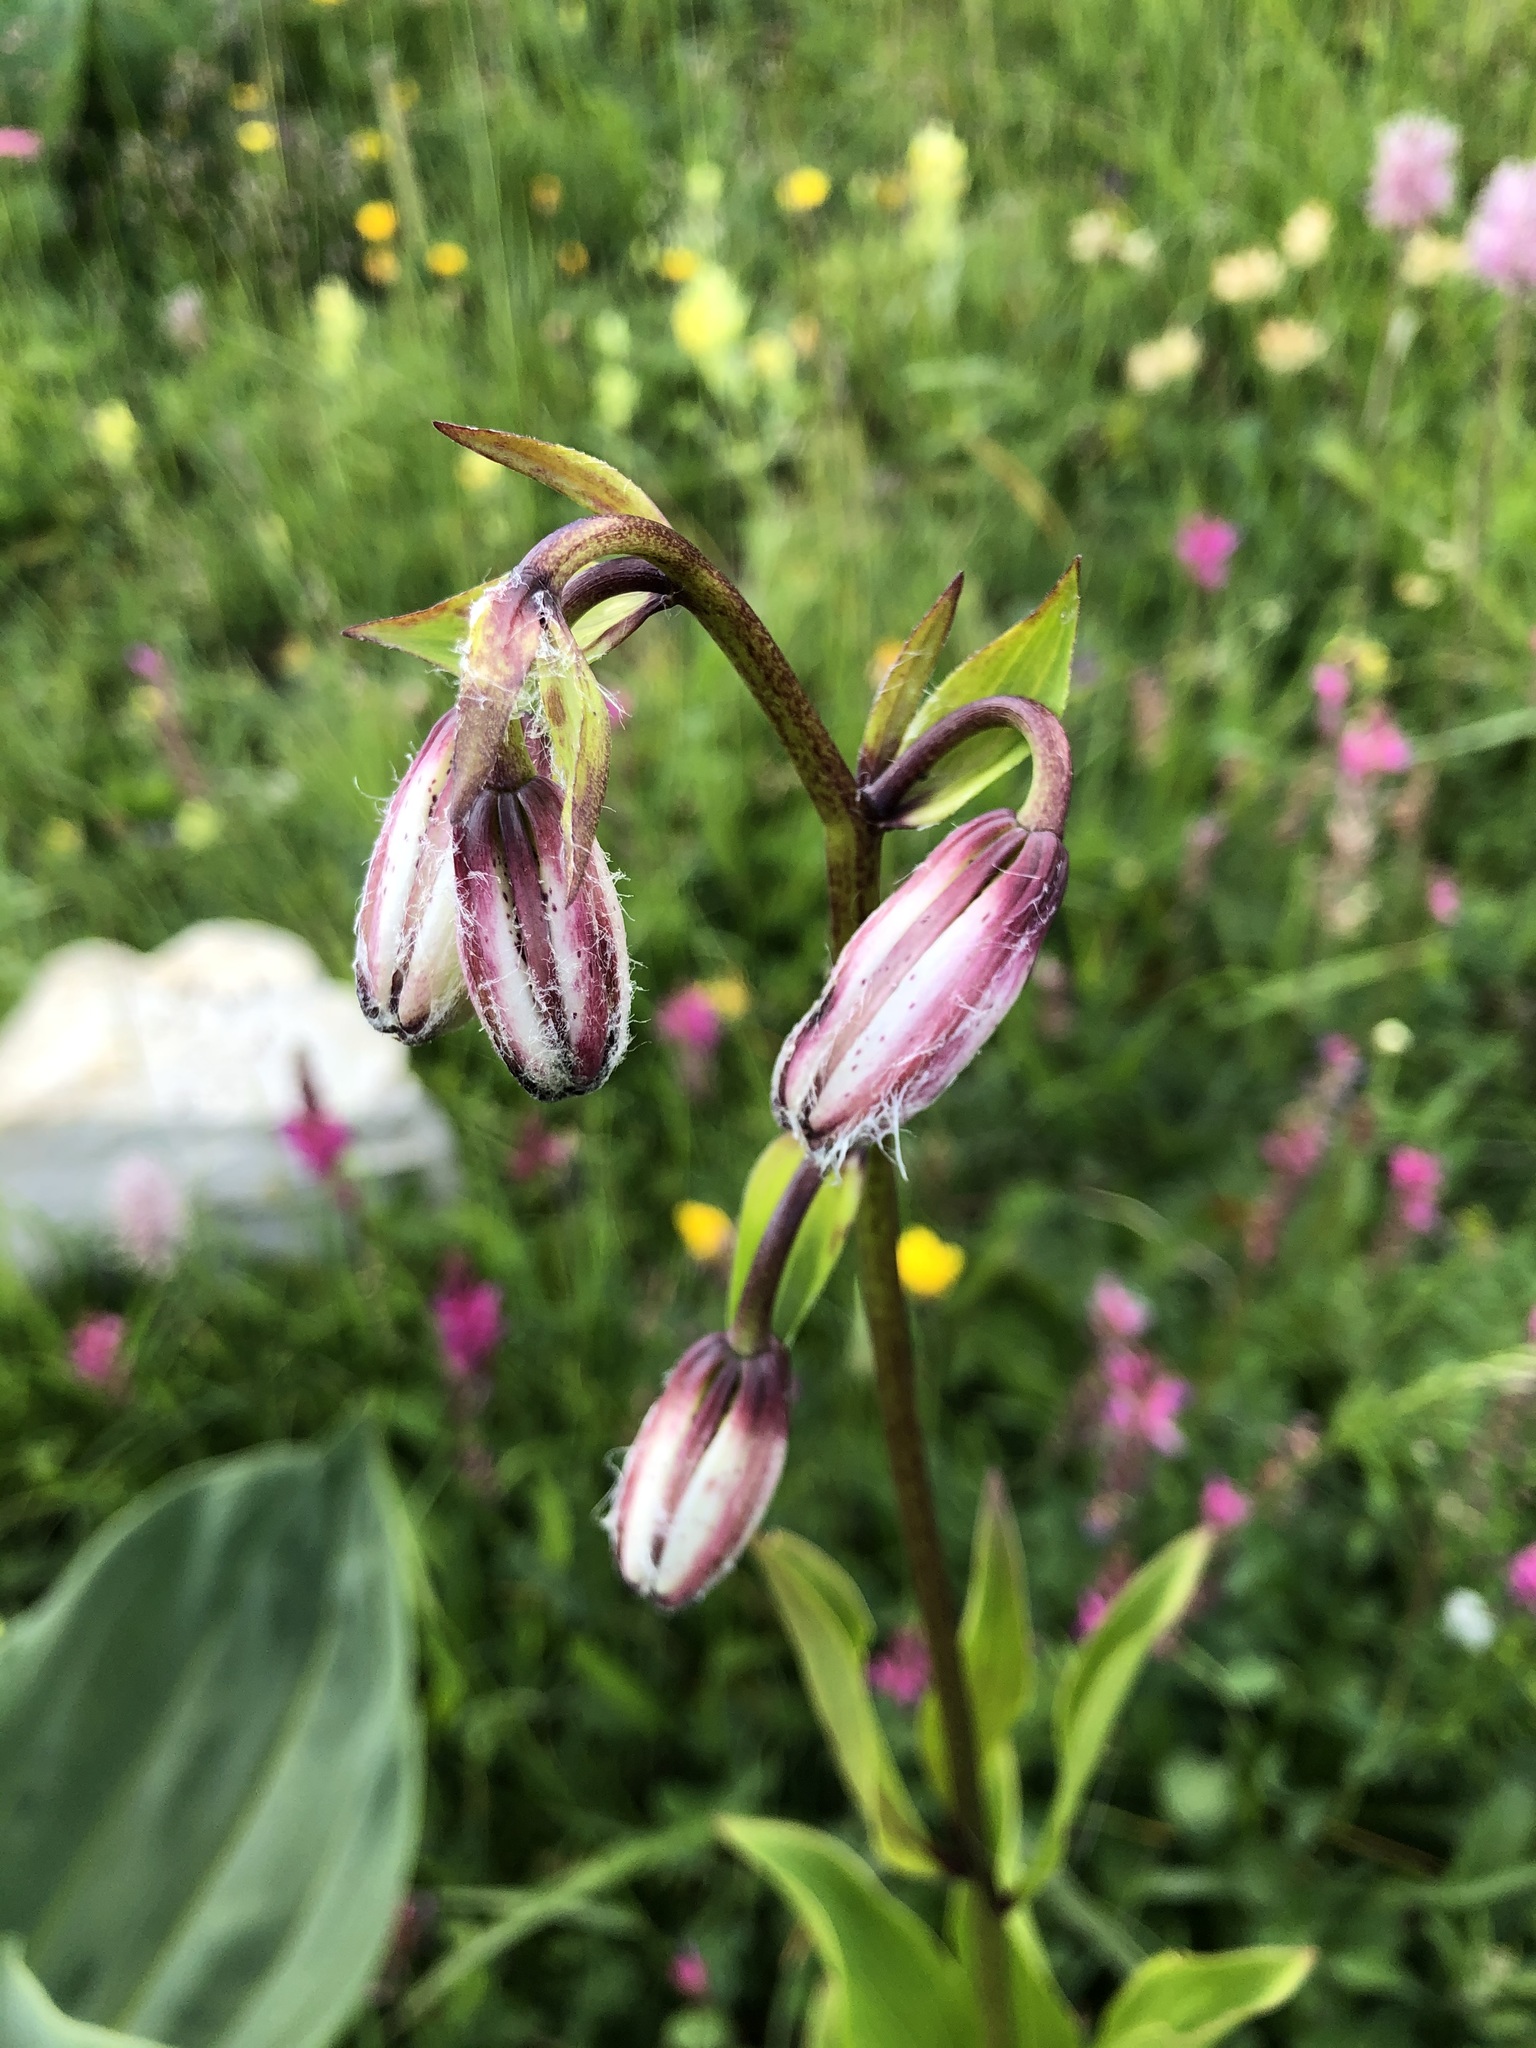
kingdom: Plantae
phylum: Tracheophyta
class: Liliopsida
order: Liliales
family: Liliaceae
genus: Lilium
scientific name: Lilium martagon
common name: Martagon lily
